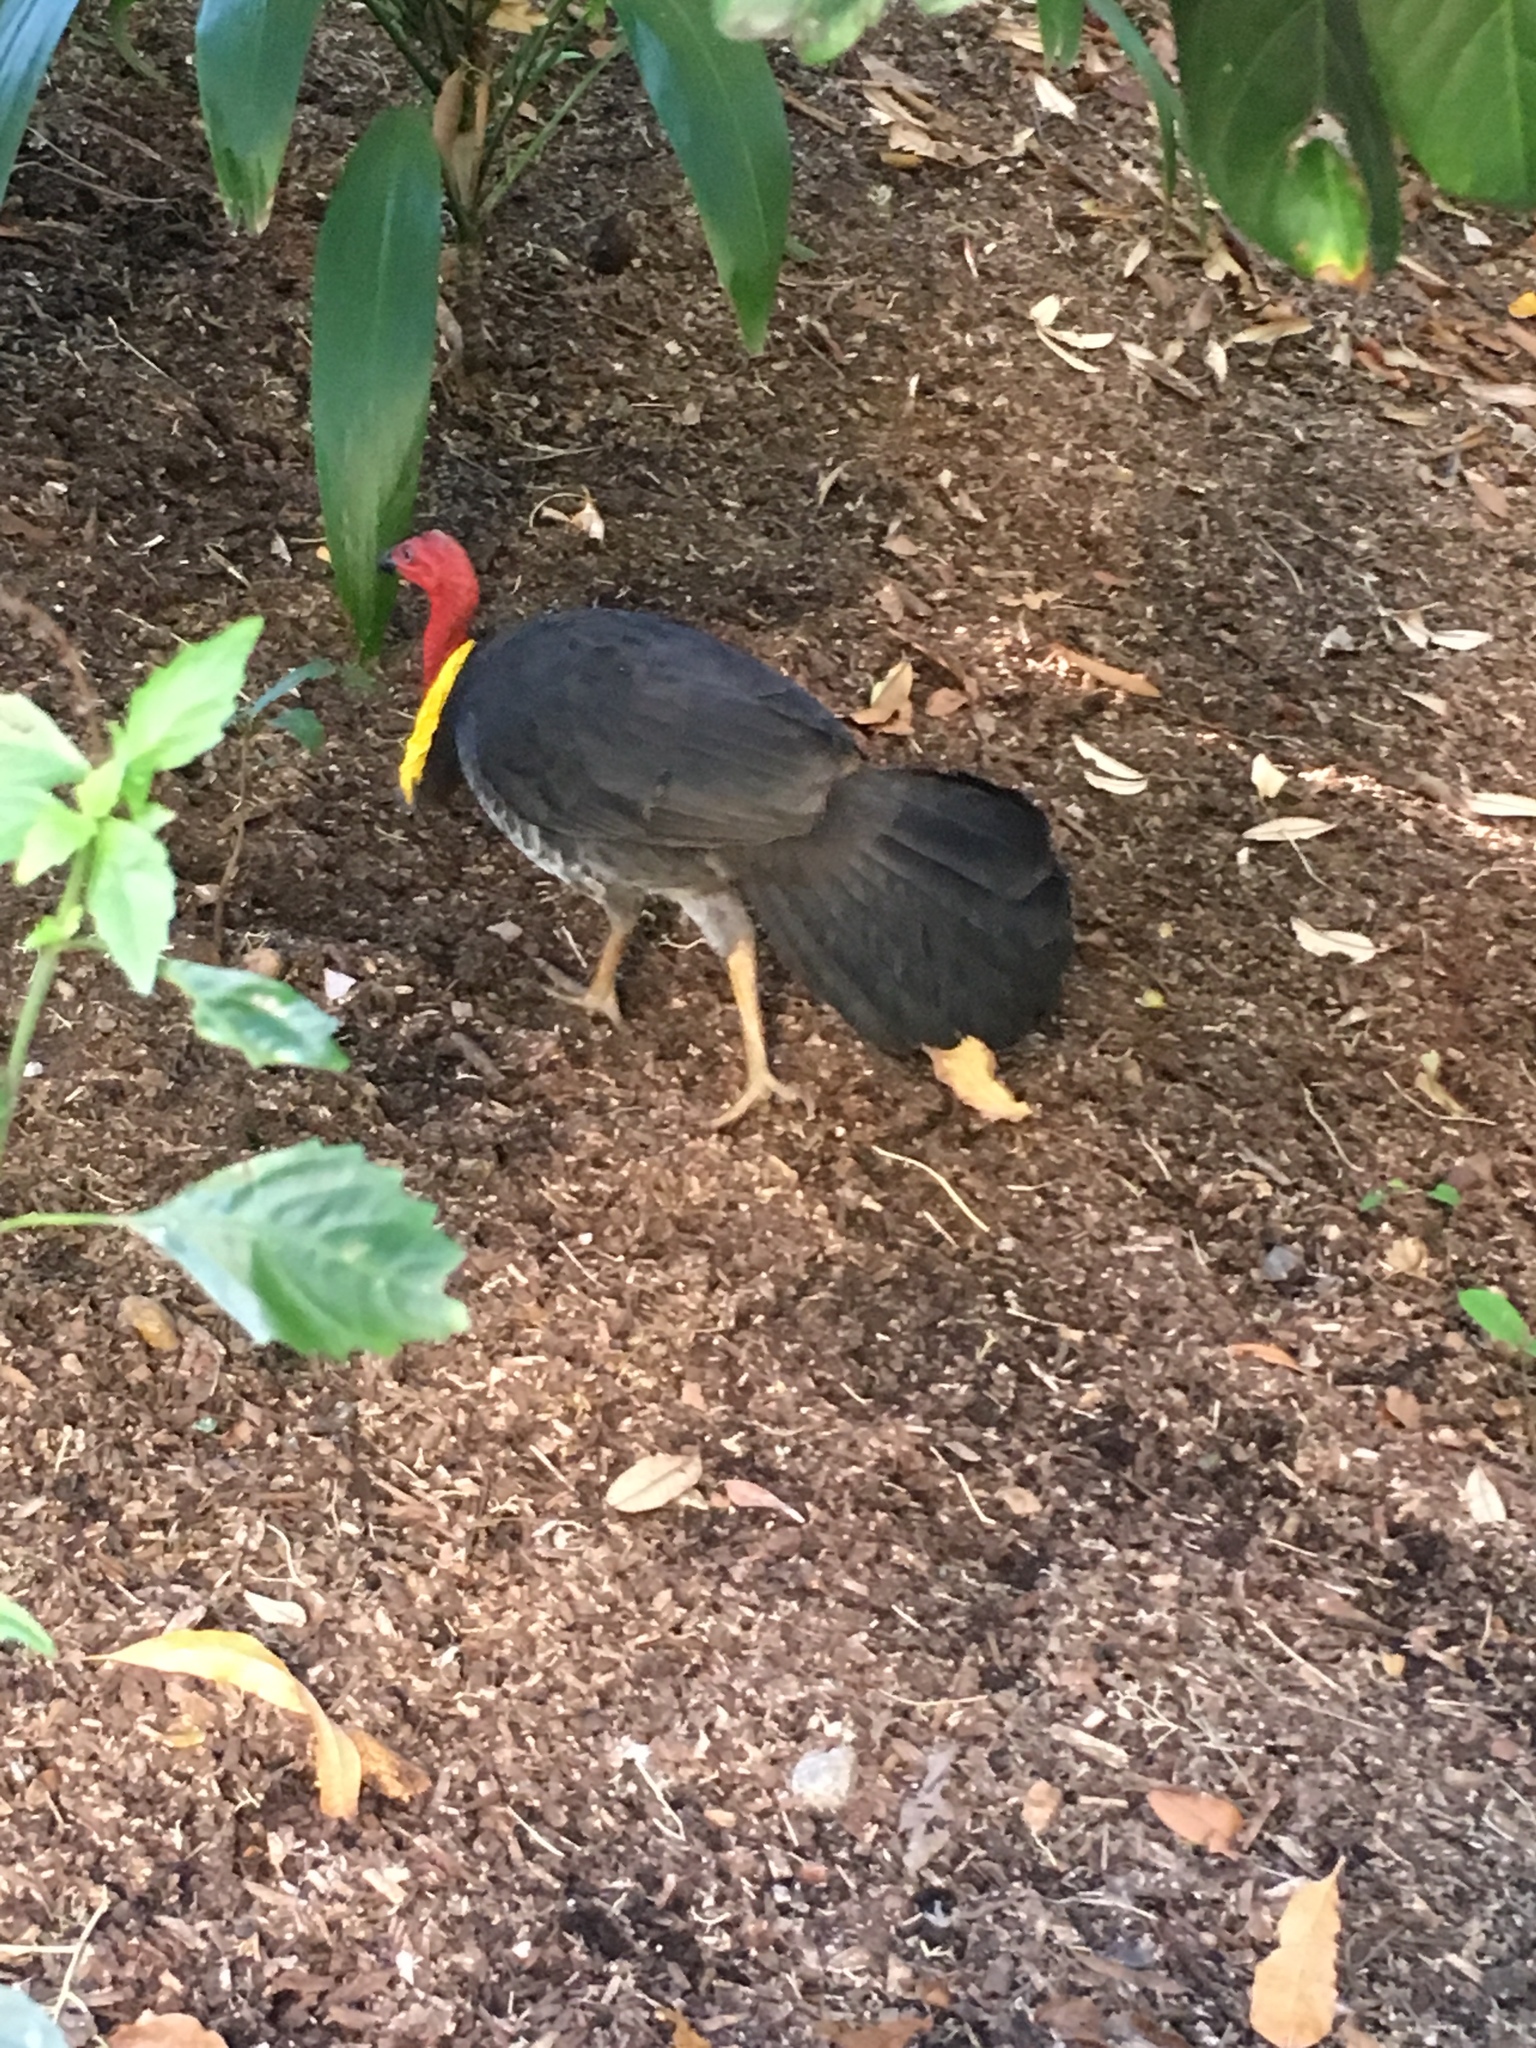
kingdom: Animalia
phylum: Chordata
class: Aves
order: Galliformes
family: Megapodiidae
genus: Alectura
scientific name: Alectura lathami
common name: Australian brushturkey
